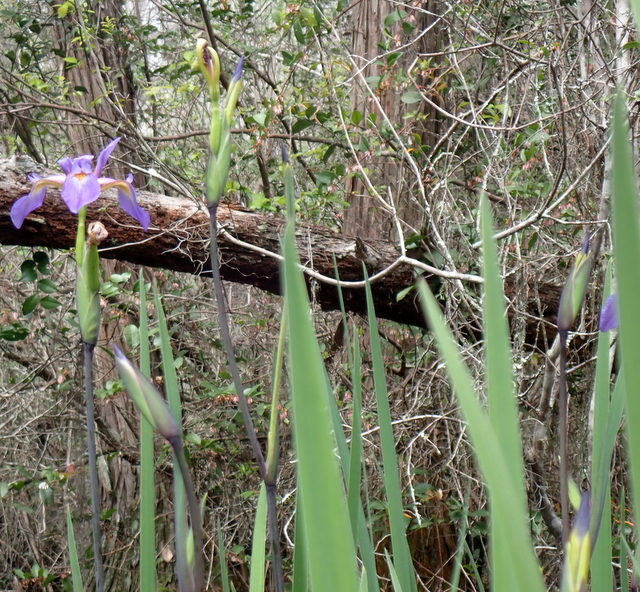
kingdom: Plantae
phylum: Tracheophyta
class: Liliopsida
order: Asparagales
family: Iridaceae
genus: Iris
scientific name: Iris virginica
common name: Southern blue flag
